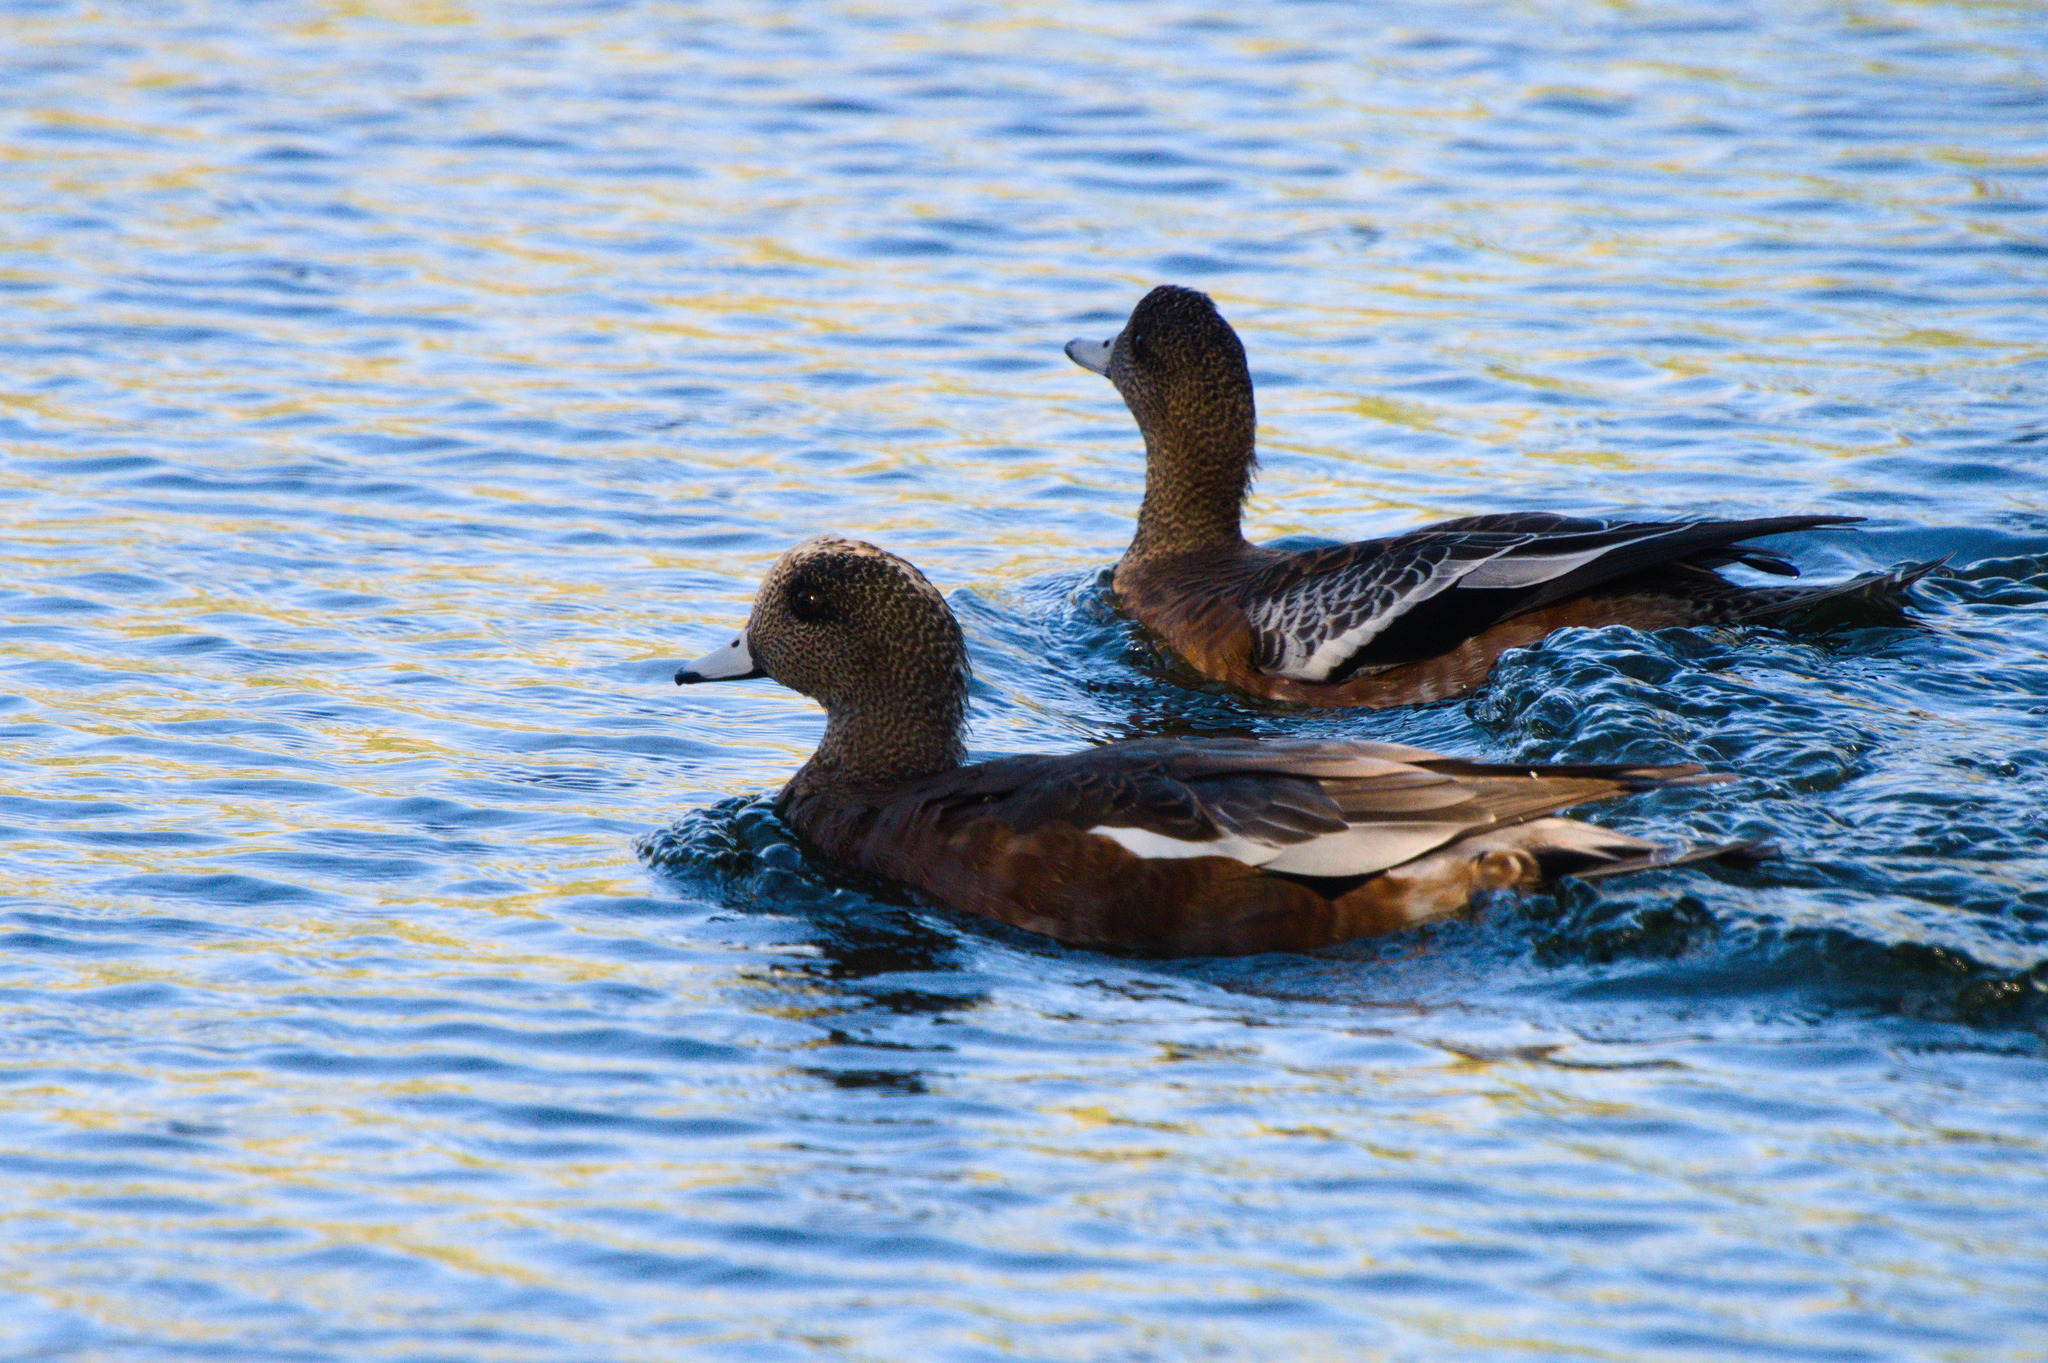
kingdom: Animalia
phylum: Chordata
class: Aves
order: Anseriformes
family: Anatidae
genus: Mareca
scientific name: Mareca americana
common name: American wigeon
